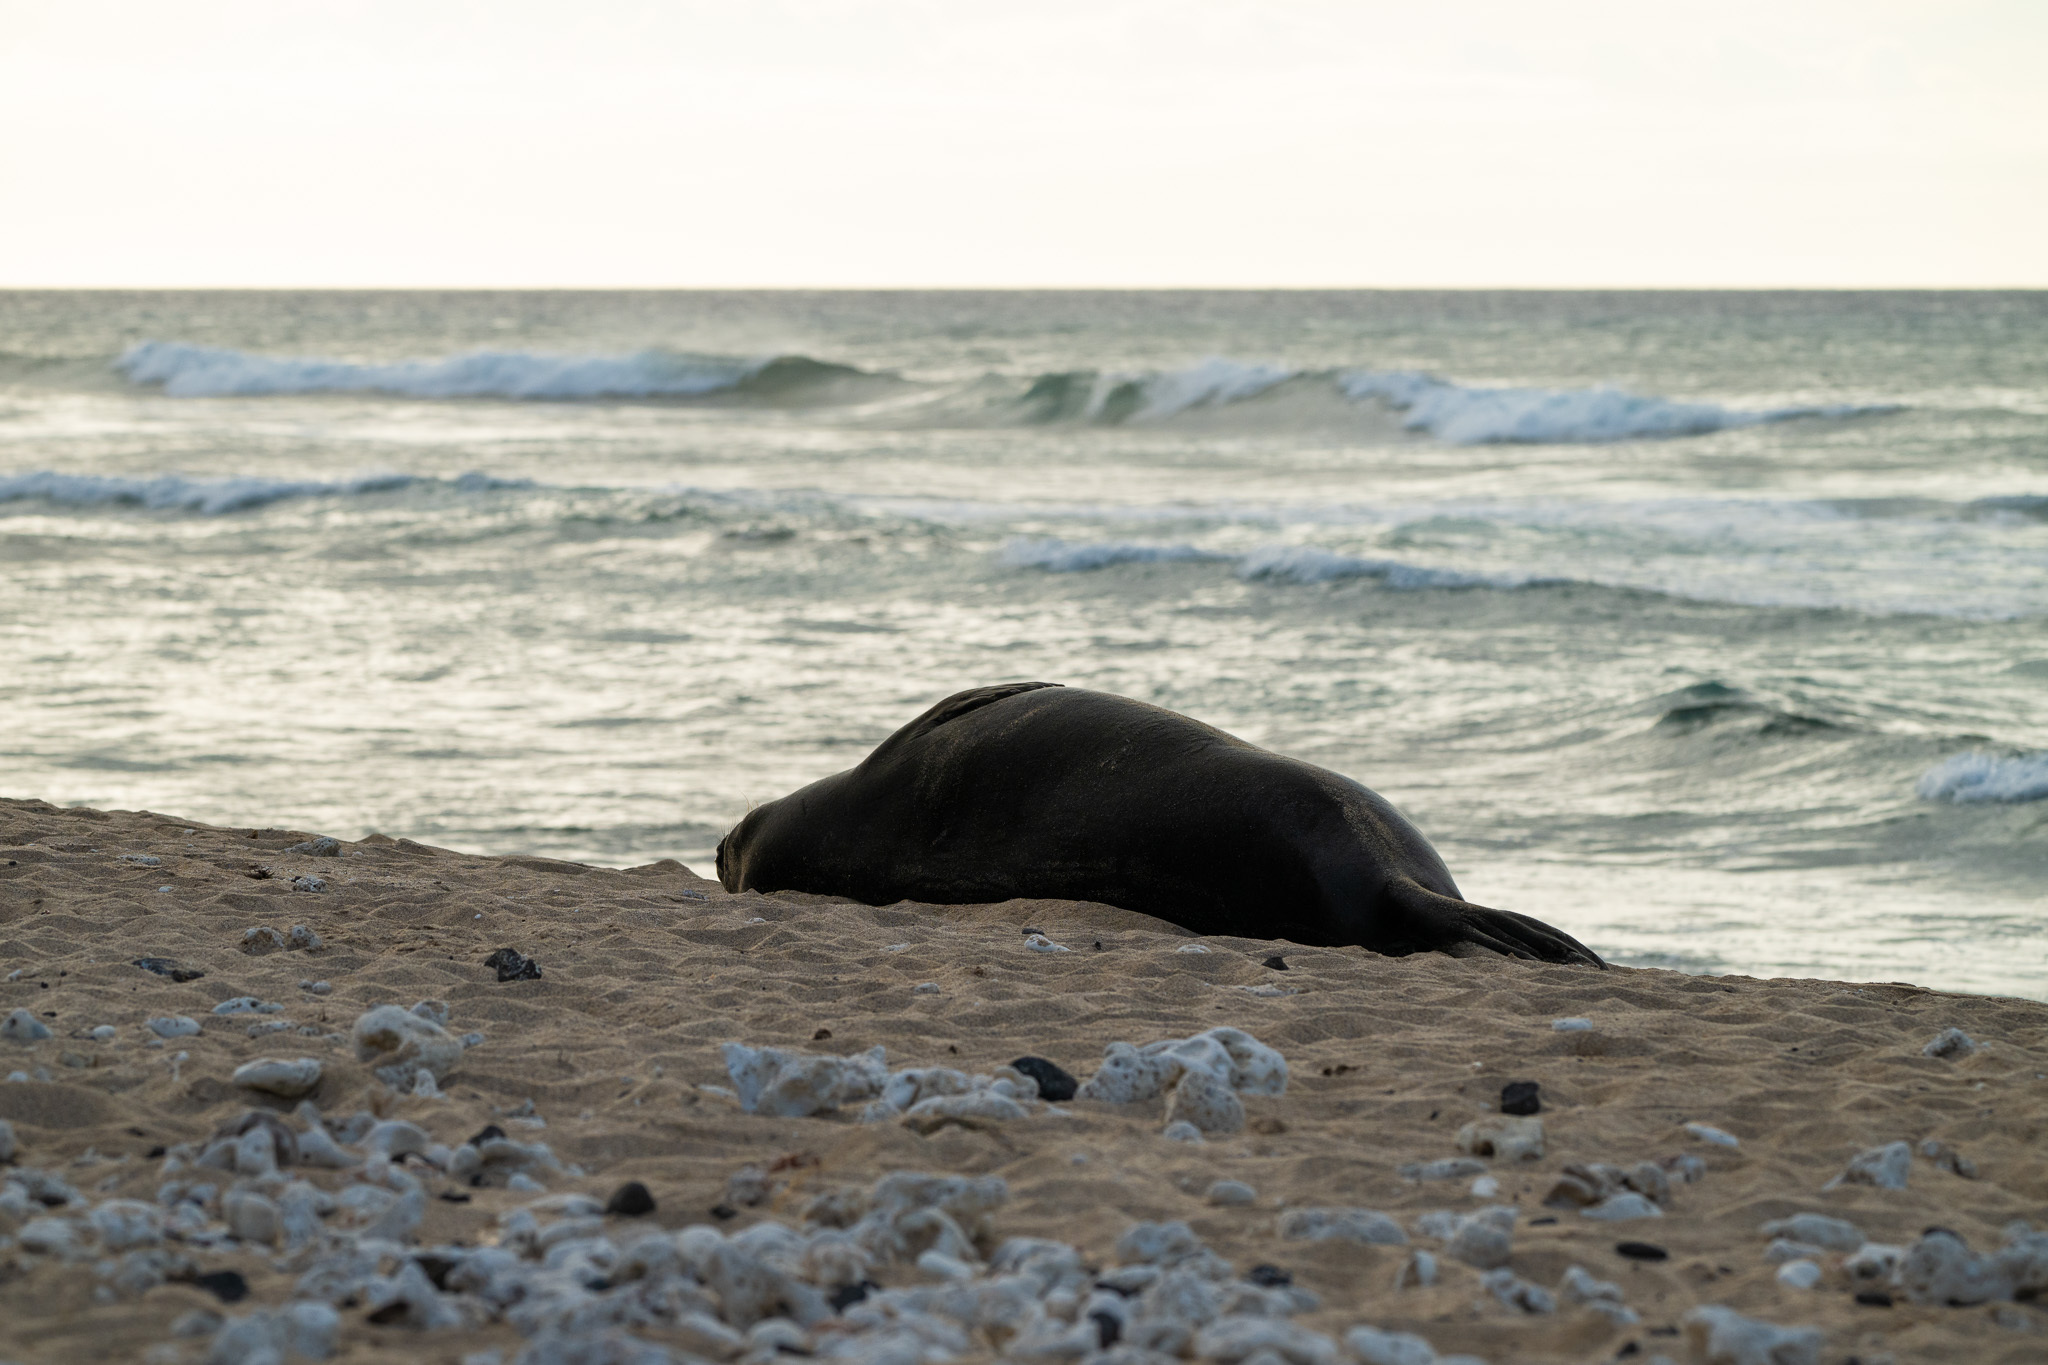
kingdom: Animalia
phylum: Chordata
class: Mammalia
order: Carnivora
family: Phocidae
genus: Neomonachus
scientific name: Neomonachus schauinslandi
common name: Hawaiian monk seal
